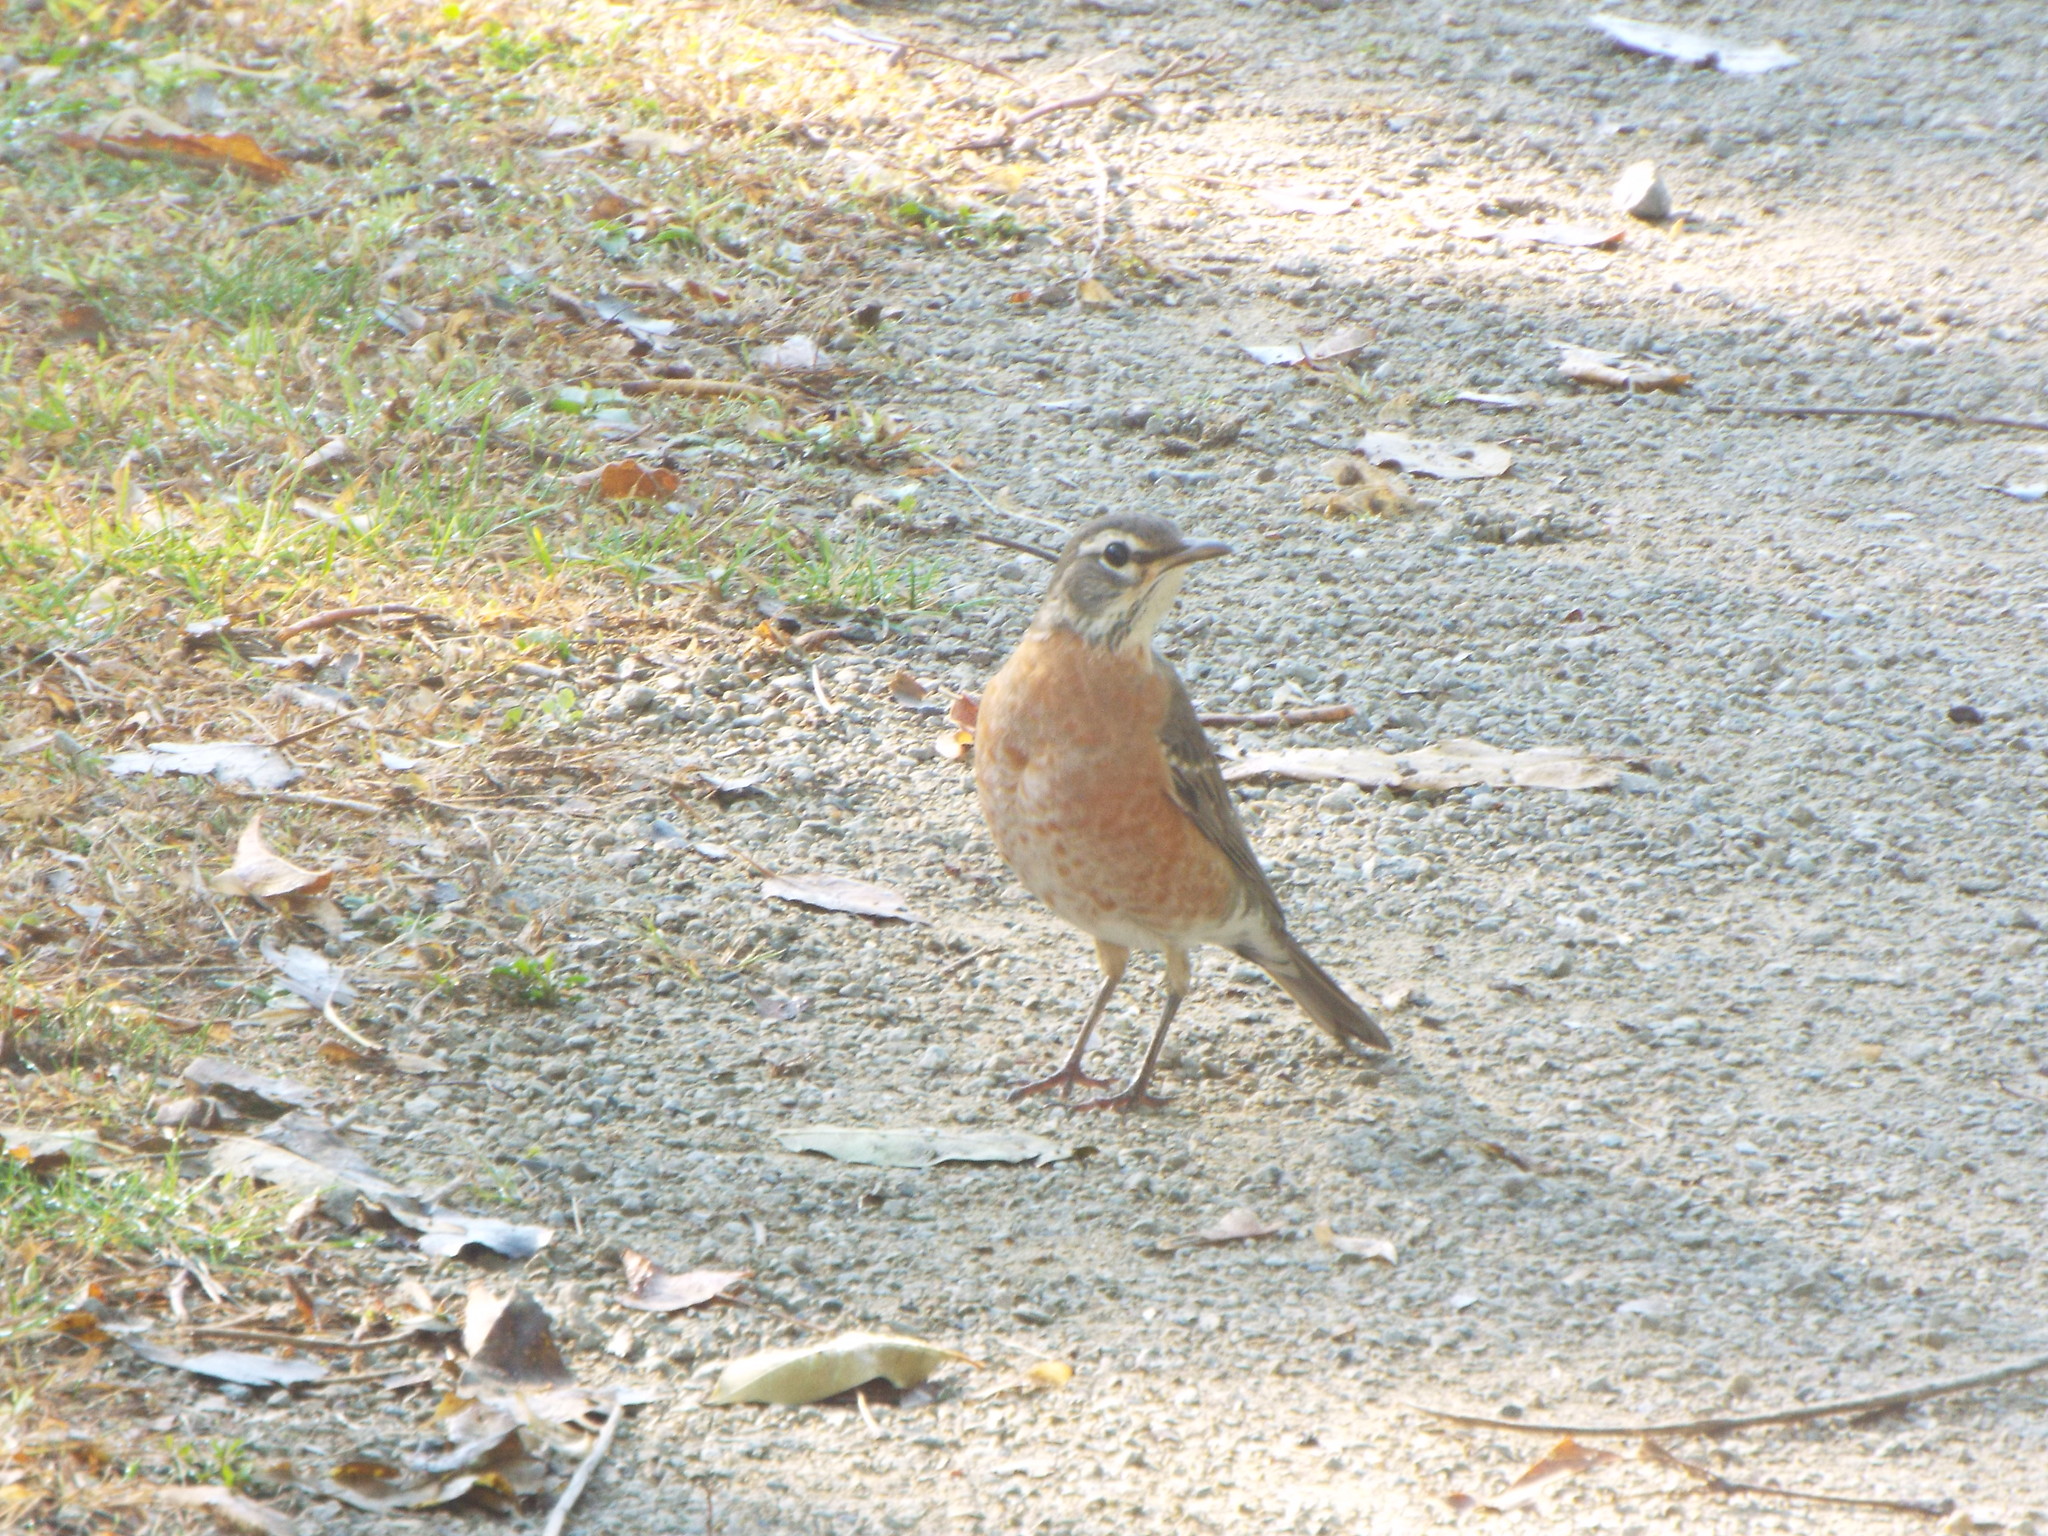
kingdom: Animalia
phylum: Chordata
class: Aves
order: Passeriformes
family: Turdidae
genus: Turdus
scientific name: Turdus migratorius
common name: American robin
